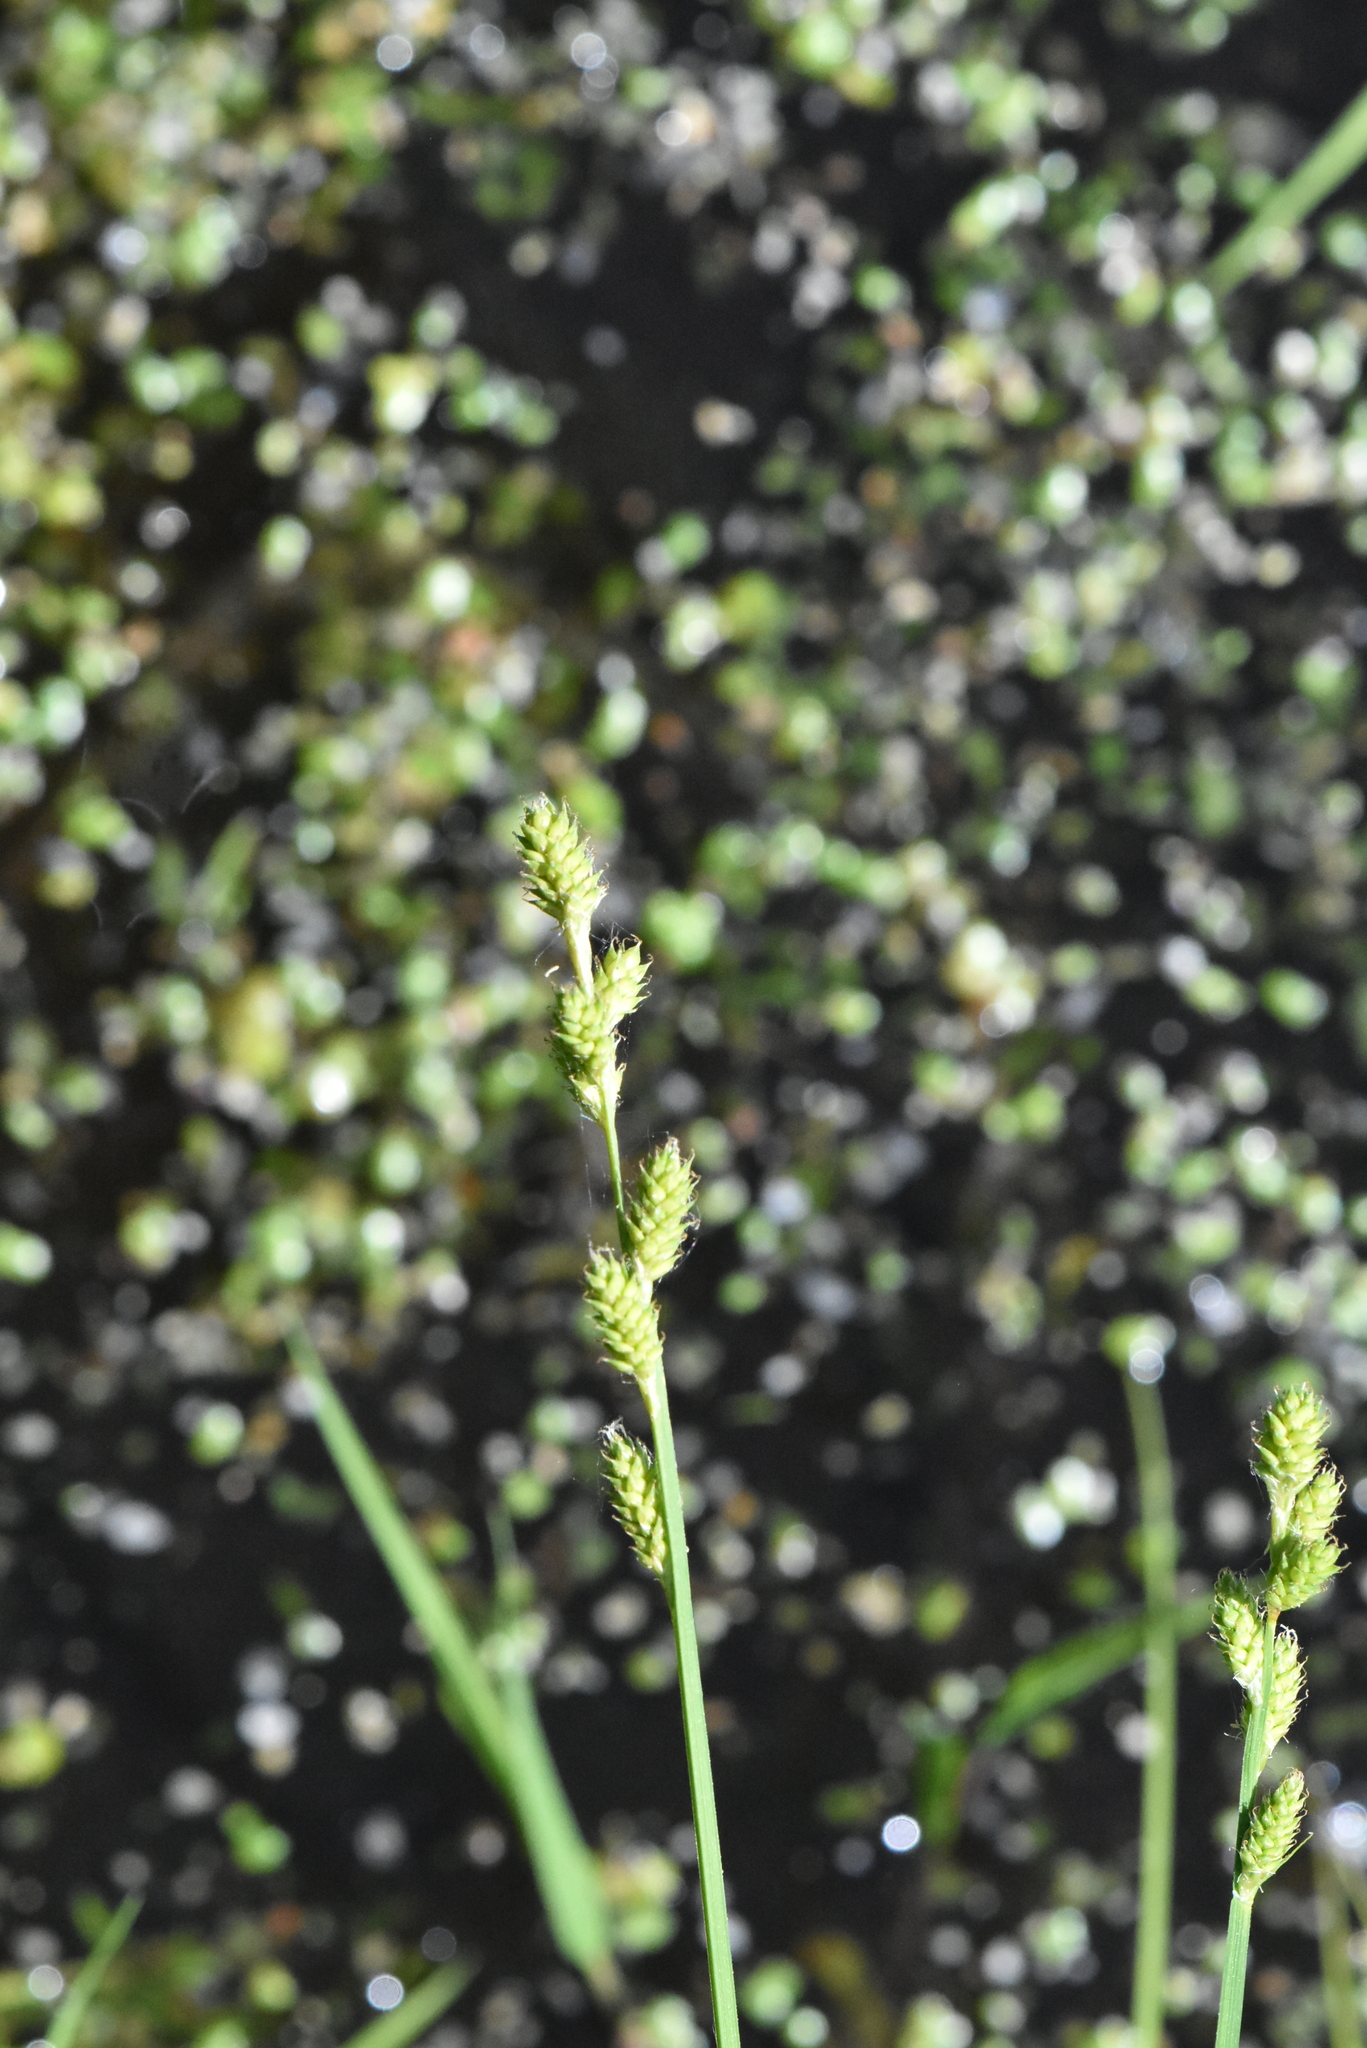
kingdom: Plantae
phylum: Tracheophyta
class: Liliopsida
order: Poales
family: Cyperaceae
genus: Carex
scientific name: Carex canescens
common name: White sedge
